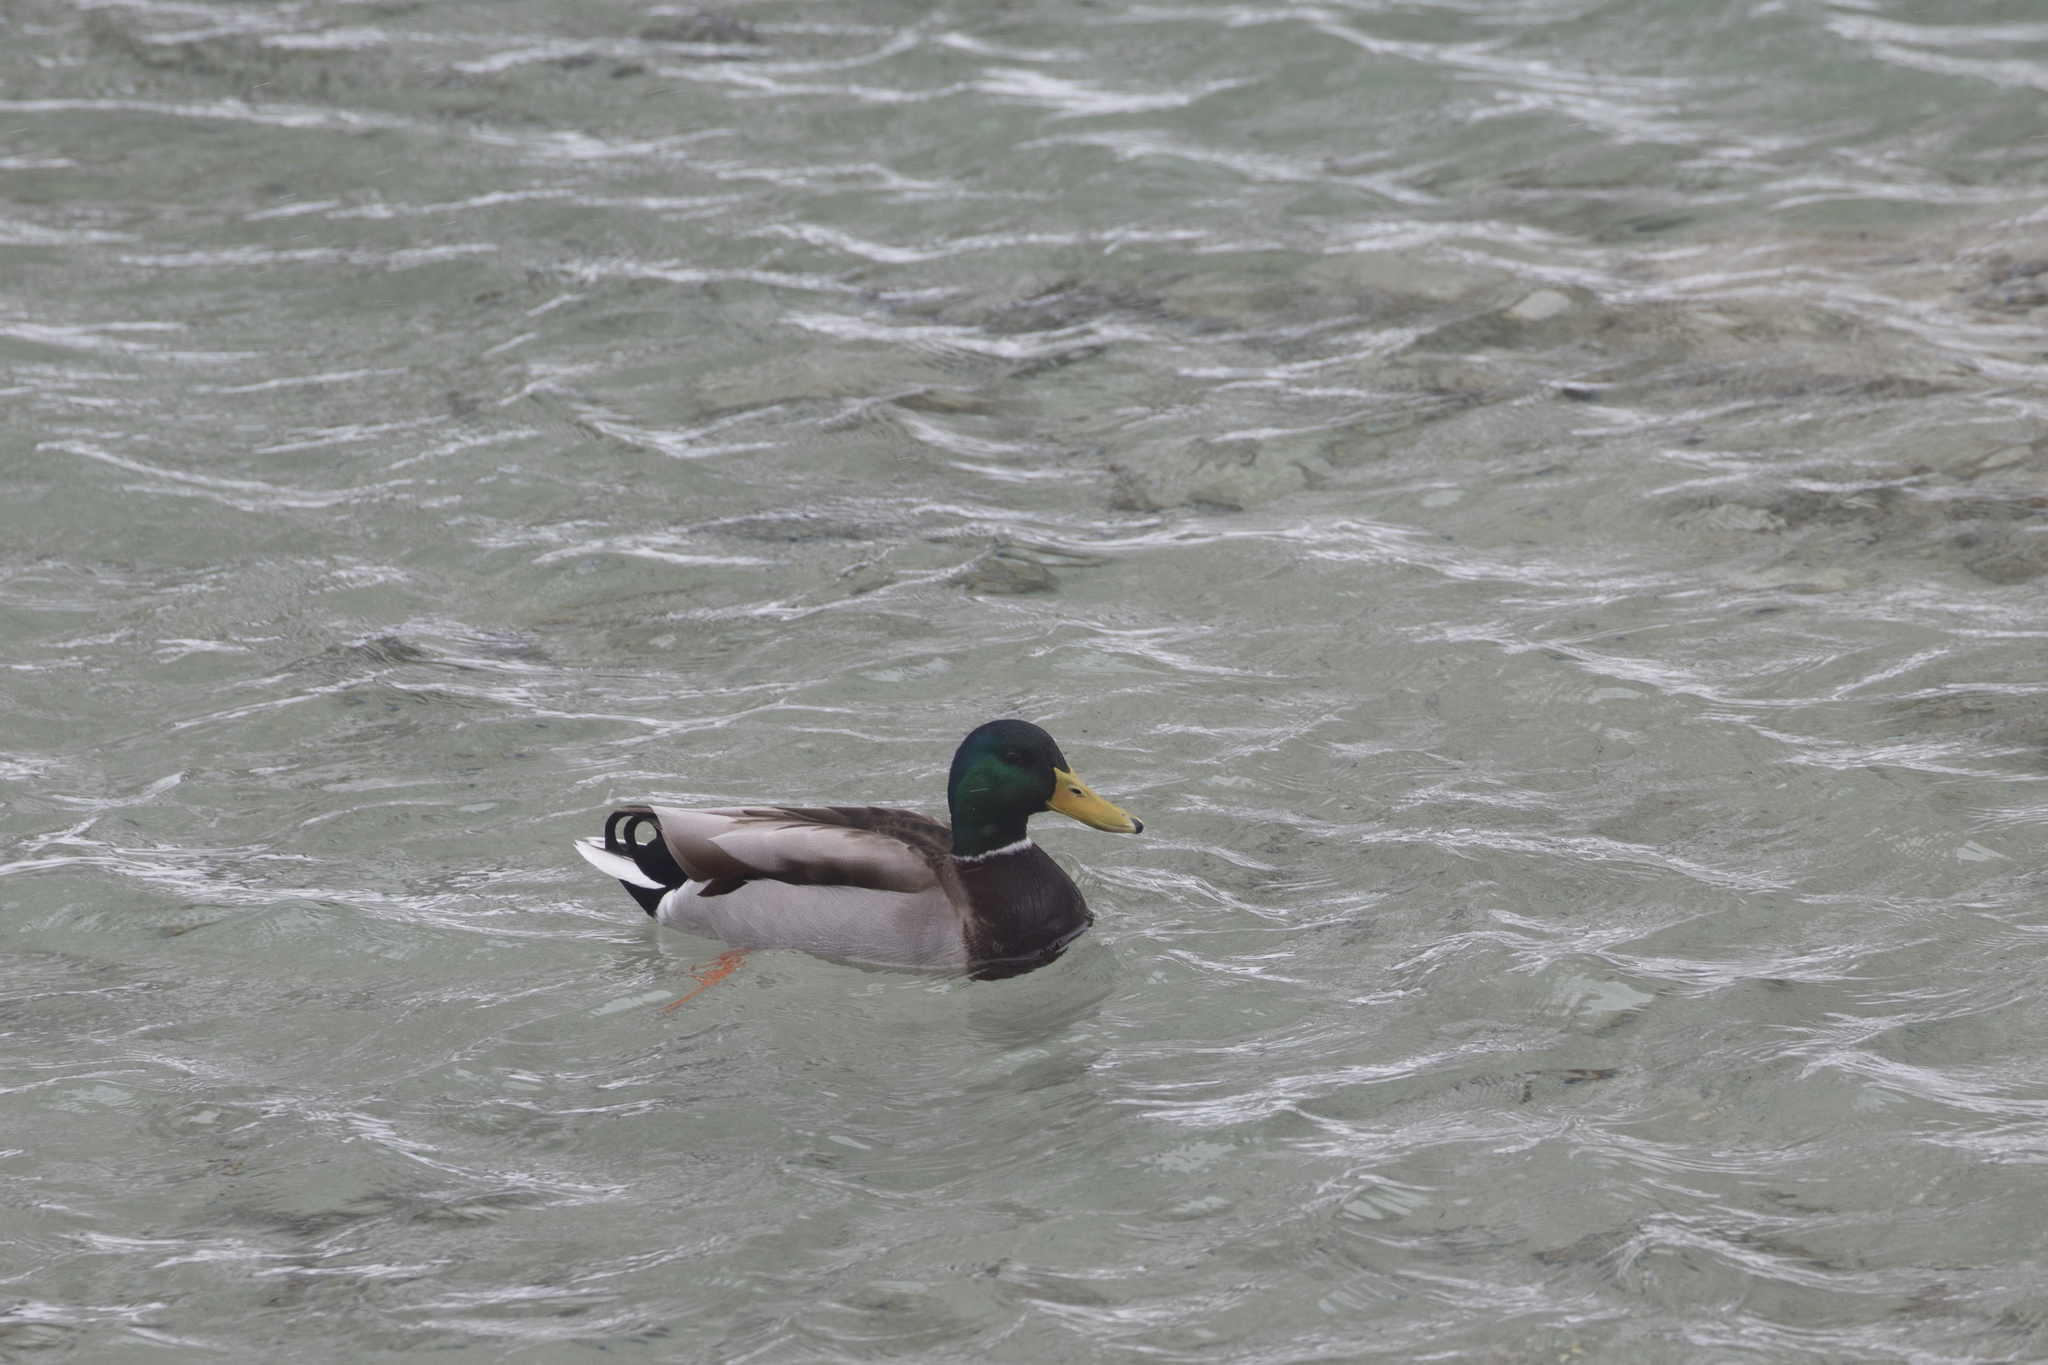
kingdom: Animalia
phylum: Chordata
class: Aves
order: Anseriformes
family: Anatidae
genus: Anas
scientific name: Anas platyrhynchos
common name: Mallard
